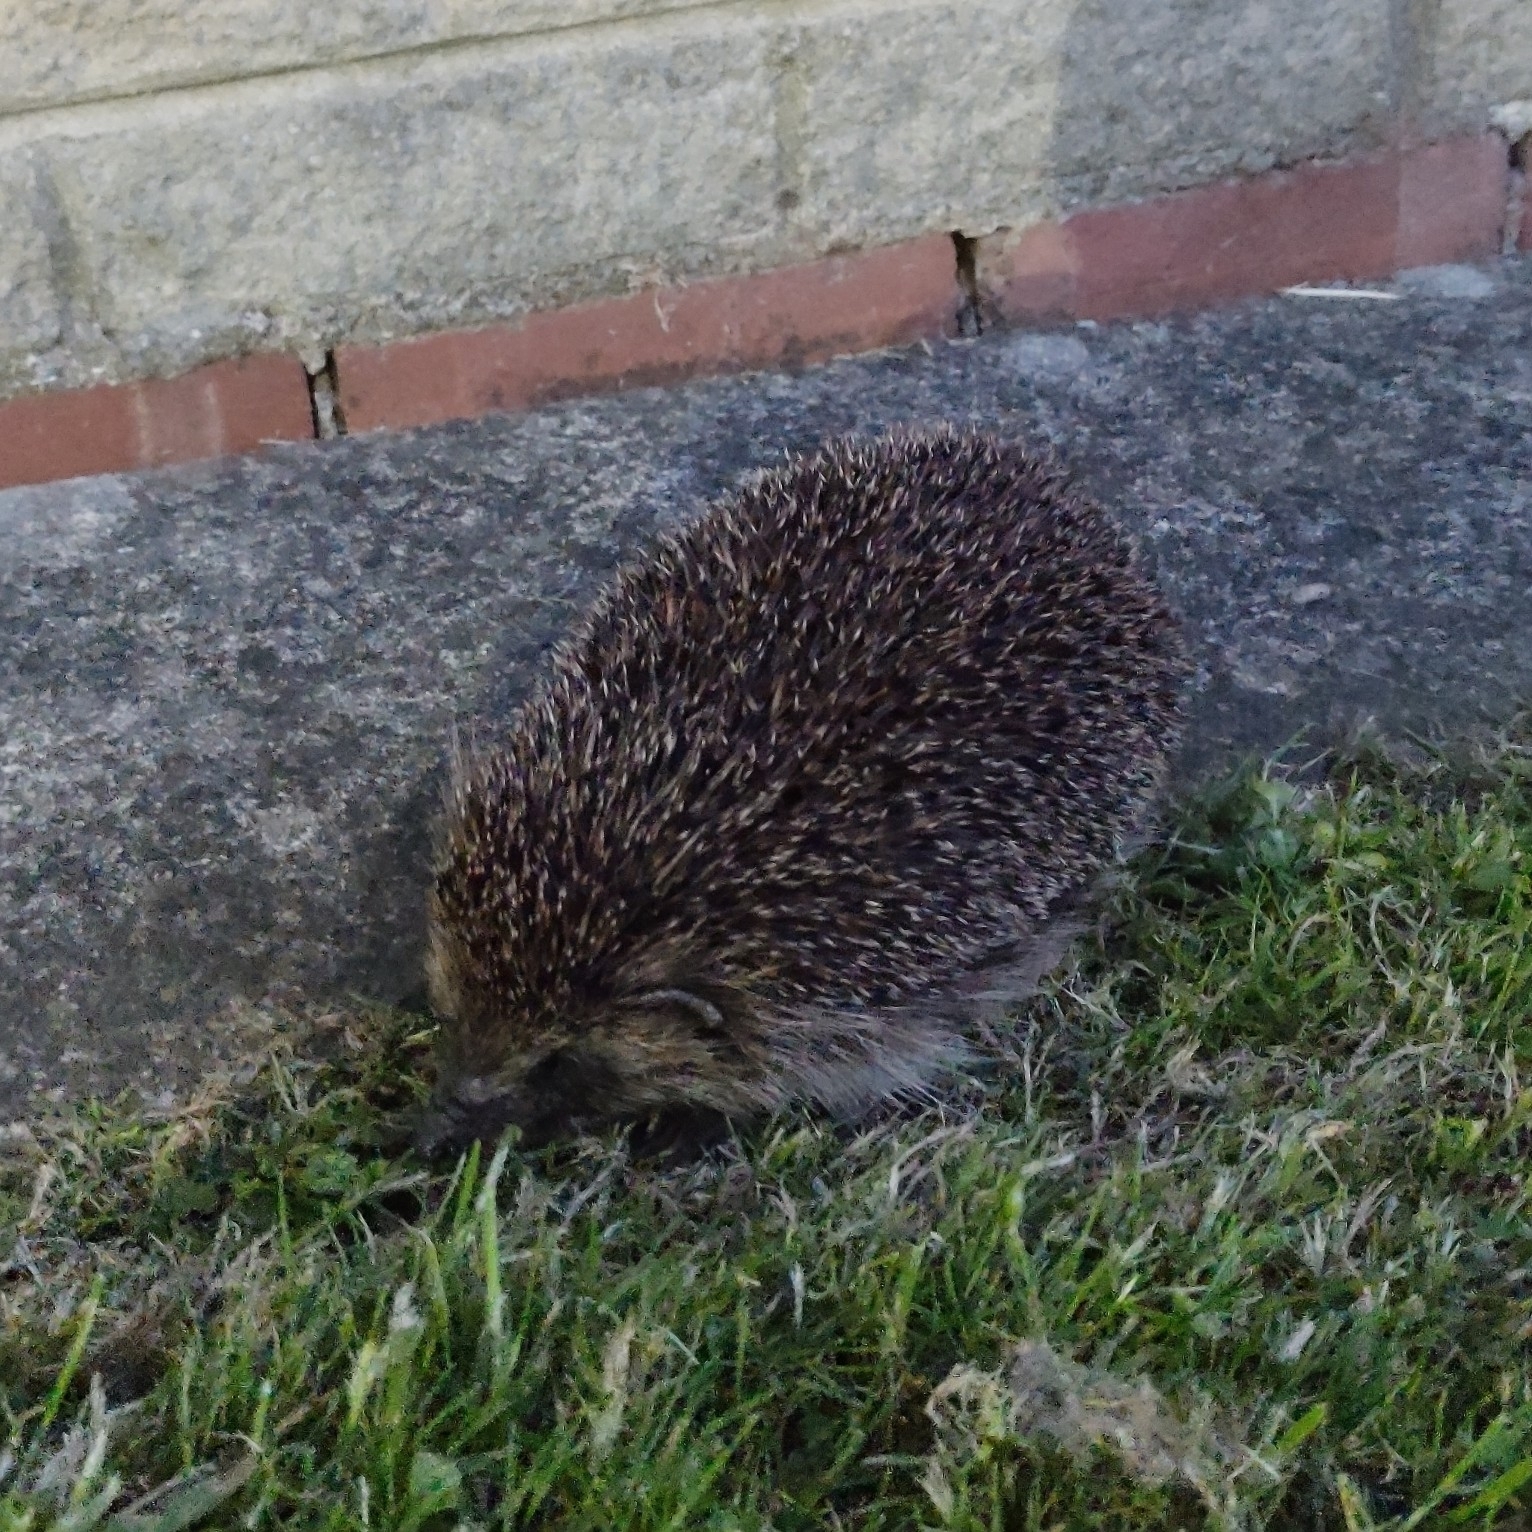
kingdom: Animalia
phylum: Chordata
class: Mammalia
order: Erinaceomorpha
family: Erinaceidae
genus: Erinaceus
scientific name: Erinaceus europaeus
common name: West european hedgehog
